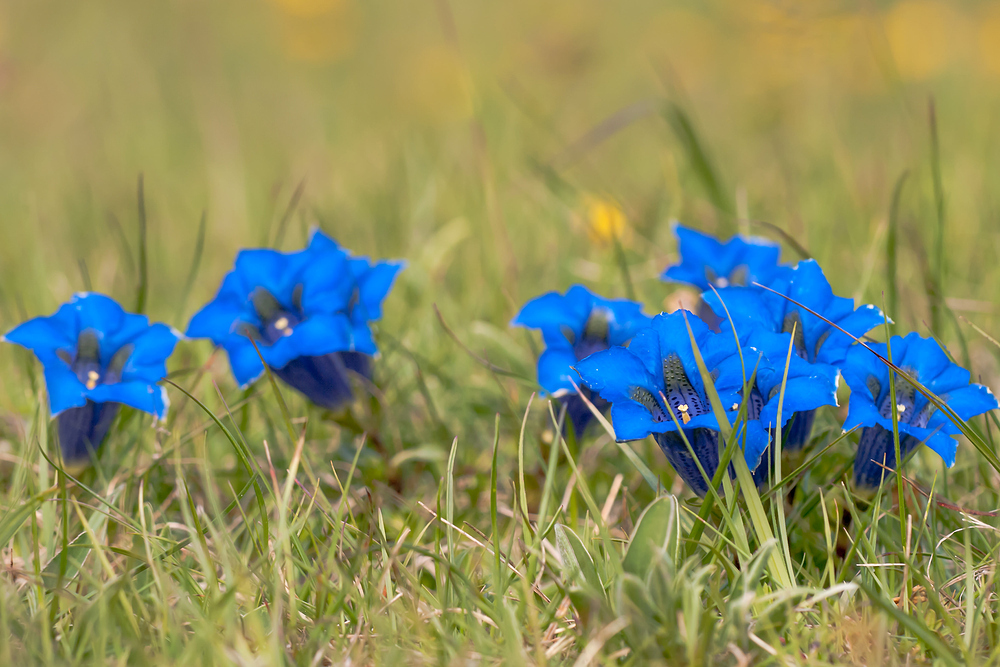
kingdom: Plantae
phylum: Tracheophyta
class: Magnoliopsida
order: Gentianales
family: Gentianaceae
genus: Gentiana
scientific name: Gentiana acaulis
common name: Trumpet gentian
